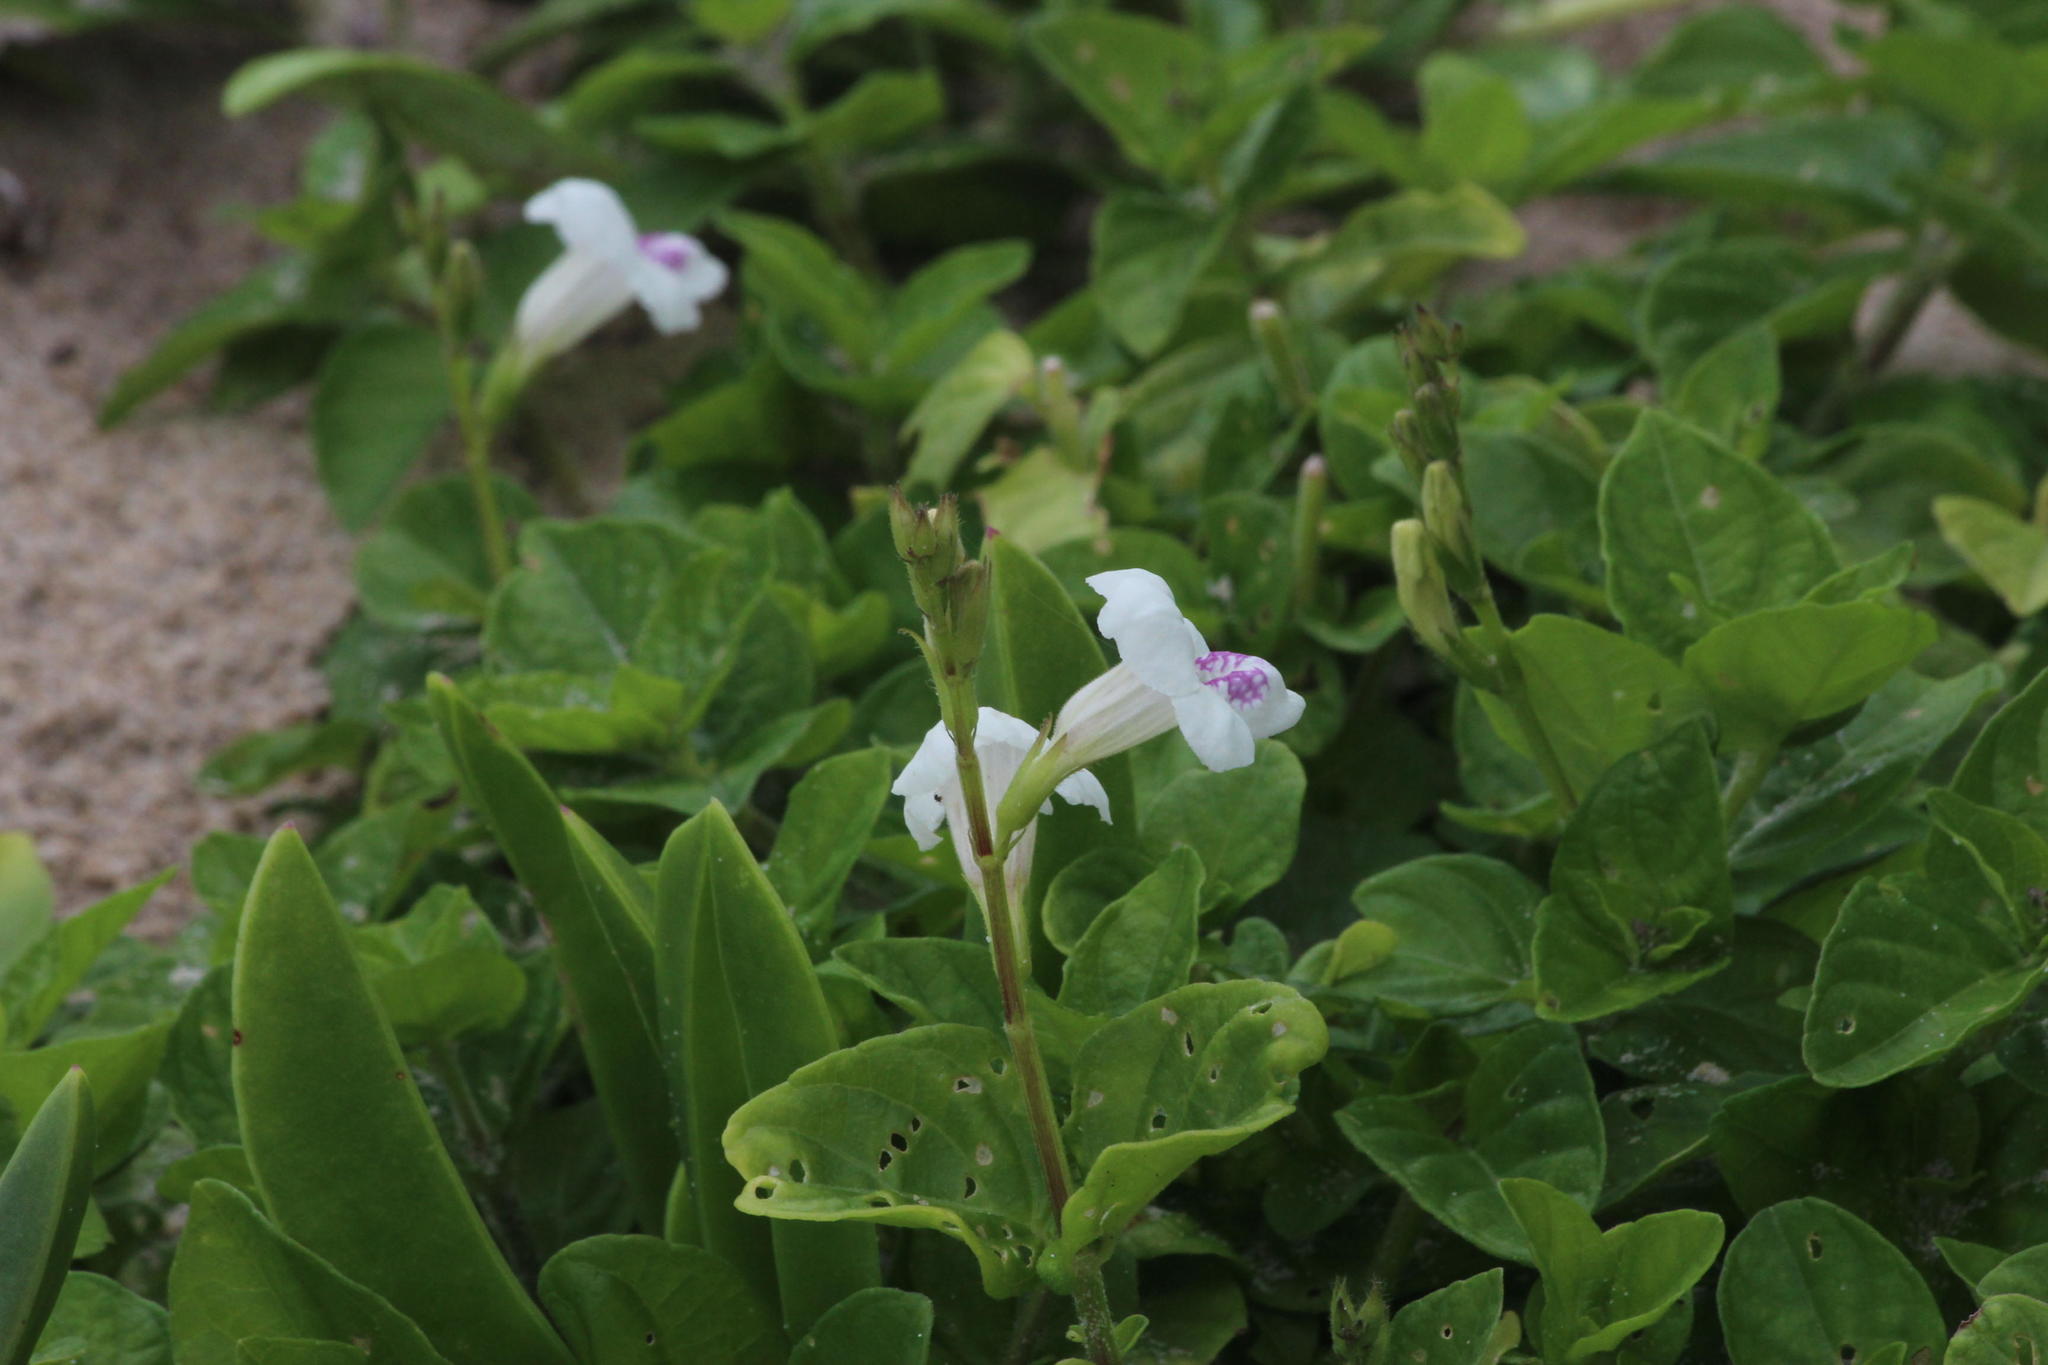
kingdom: Plantae
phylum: Tracheophyta
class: Magnoliopsida
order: Lamiales
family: Acanthaceae
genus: Asystasia
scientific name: Asystasia intrusa
